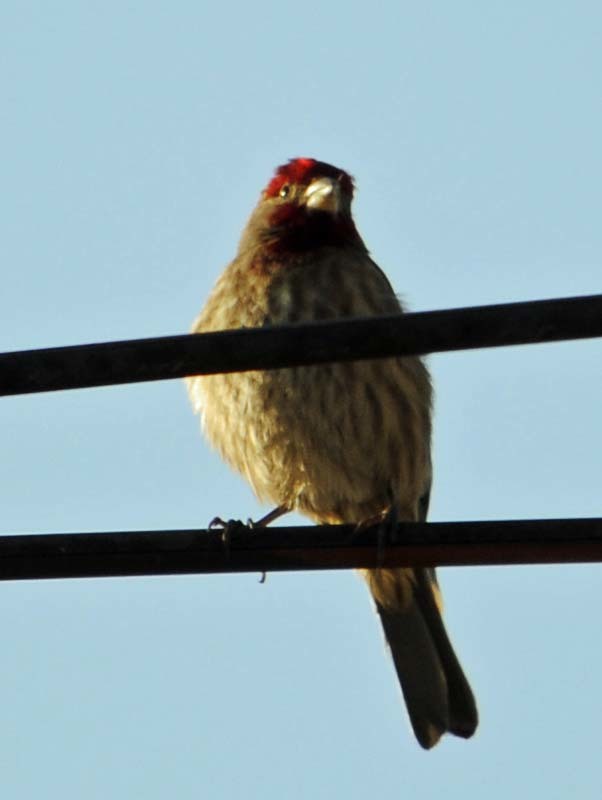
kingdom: Animalia
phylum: Chordata
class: Aves
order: Passeriformes
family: Fringillidae
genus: Haemorhous
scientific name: Haemorhous mexicanus
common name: House finch
